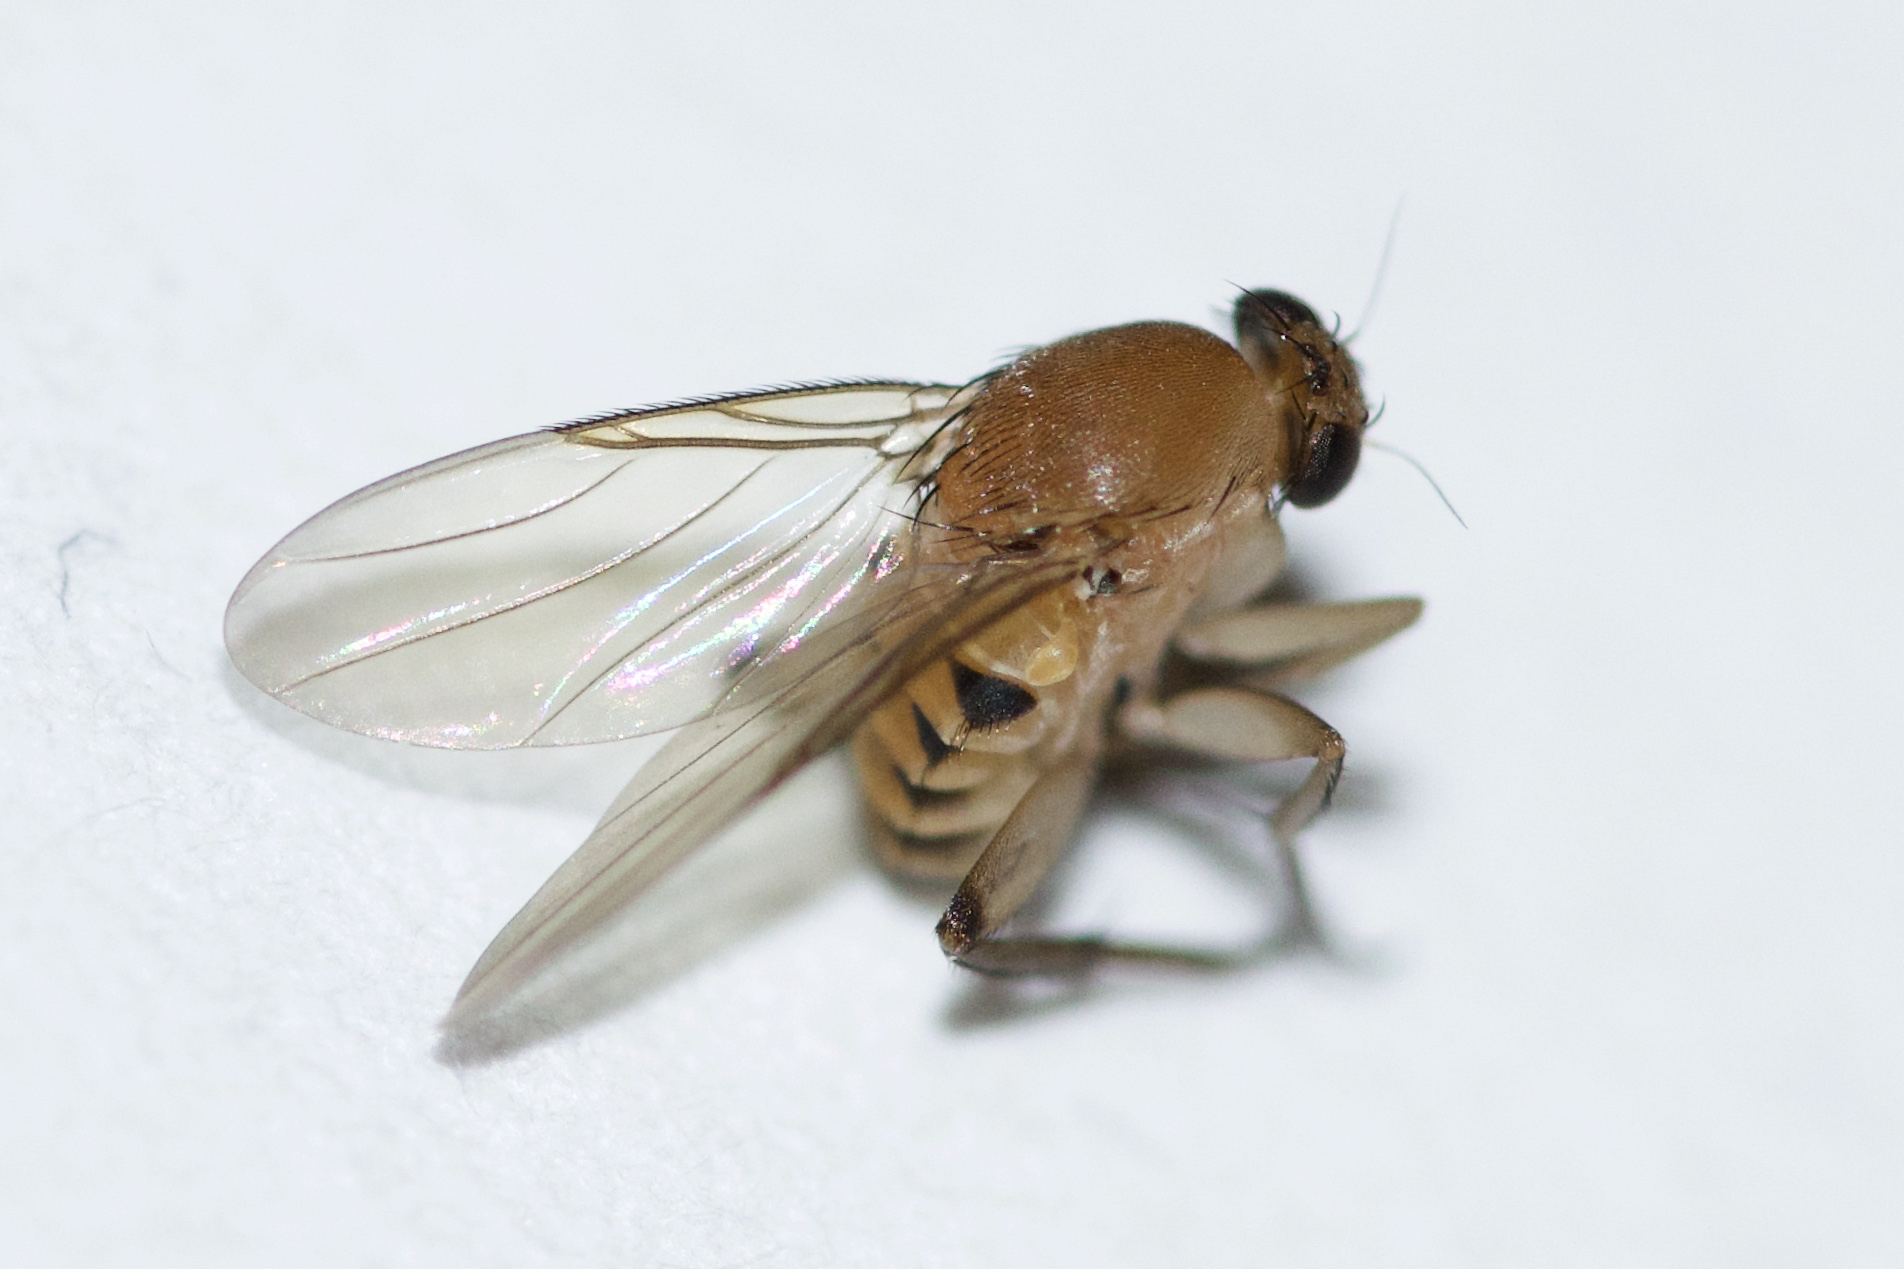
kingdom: Animalia
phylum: Arthropoda
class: Insecta
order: Diptera
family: Phoridae
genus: Megaselia
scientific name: Megaselia scalaris
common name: Scuttle fly
